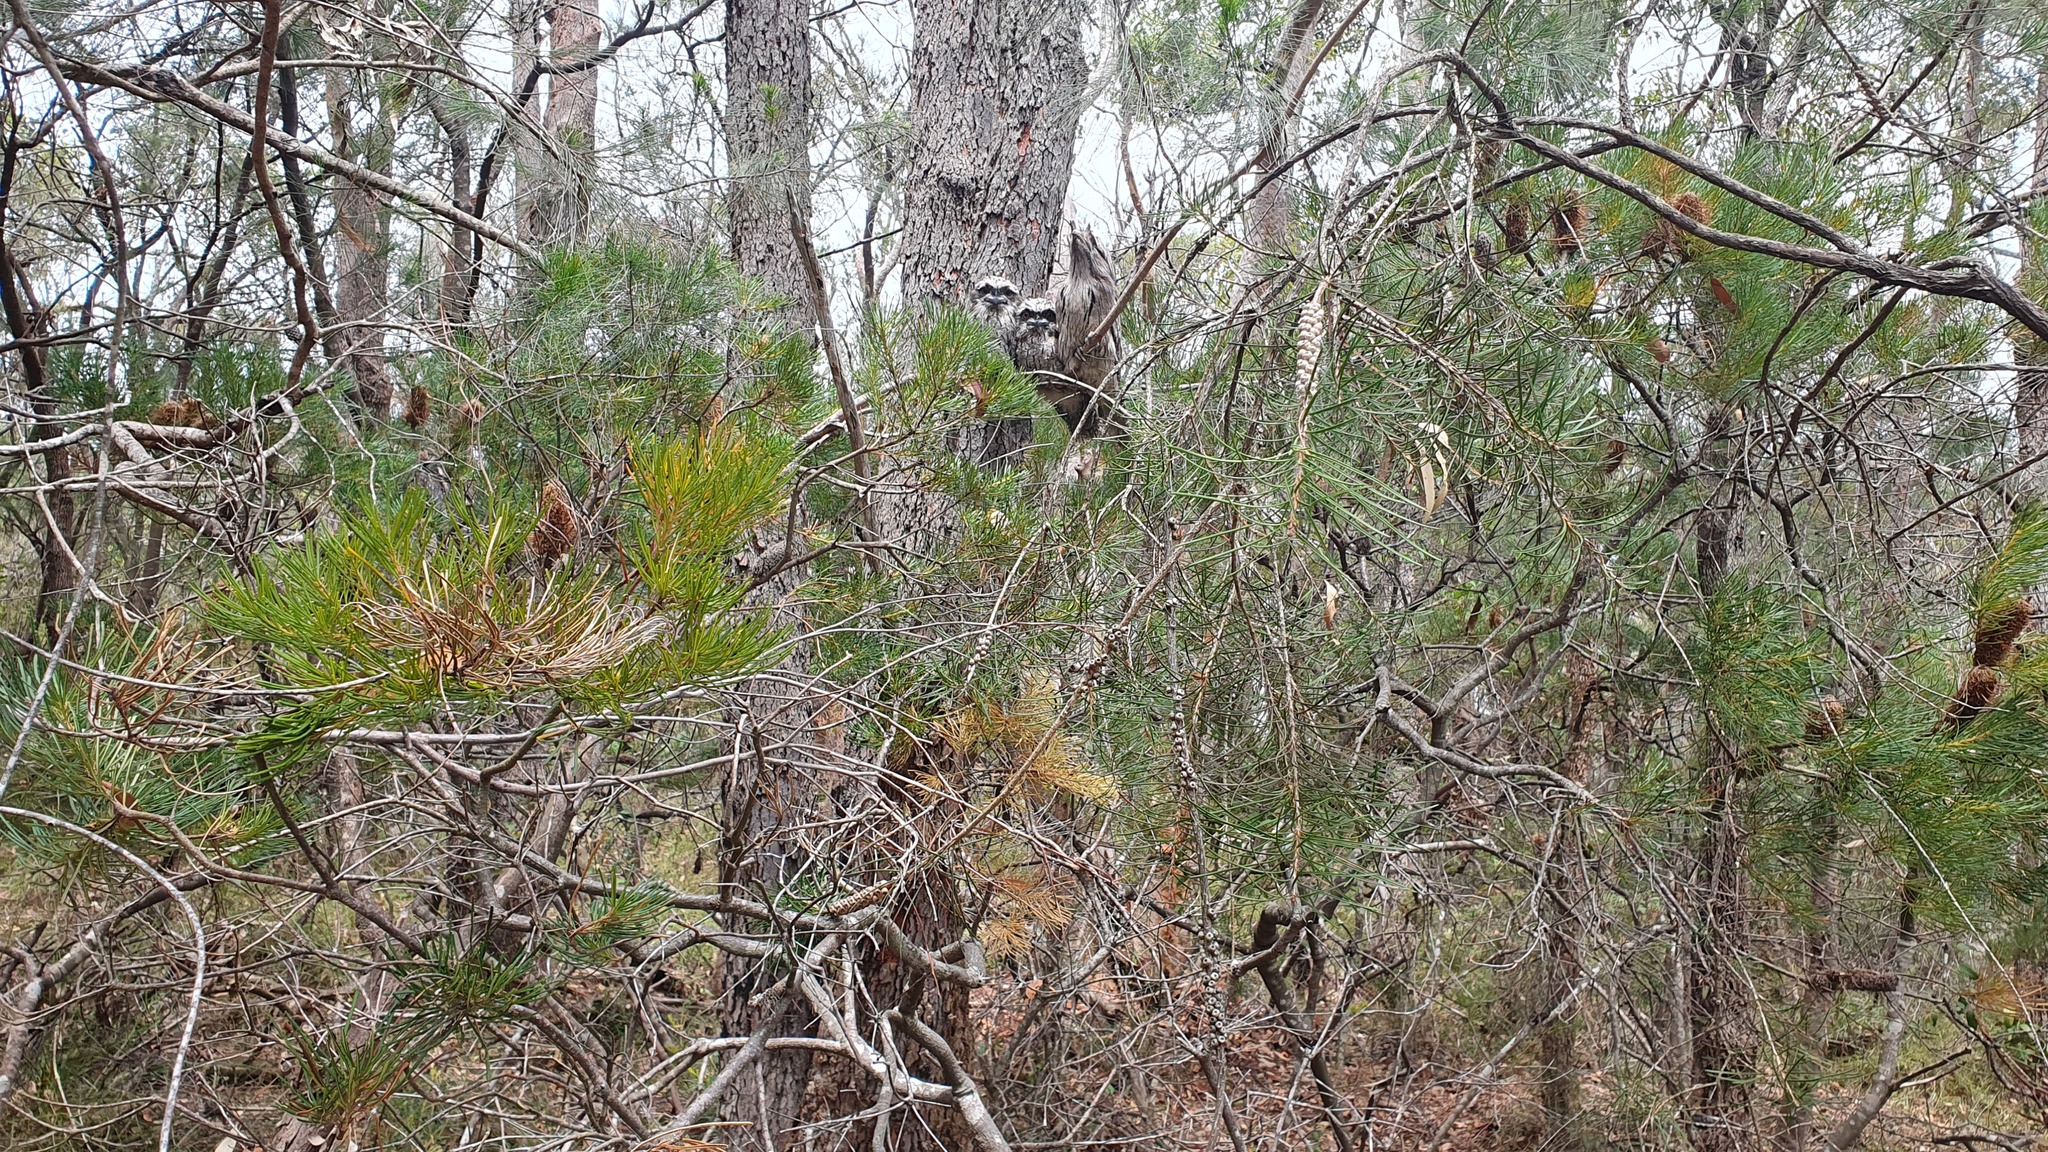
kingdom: Animalia
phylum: Chordata
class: Aves
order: Caprimulgiformes
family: Podargidae
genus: Podargus
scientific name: Podargus strigoides
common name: Tawny frogmouth
